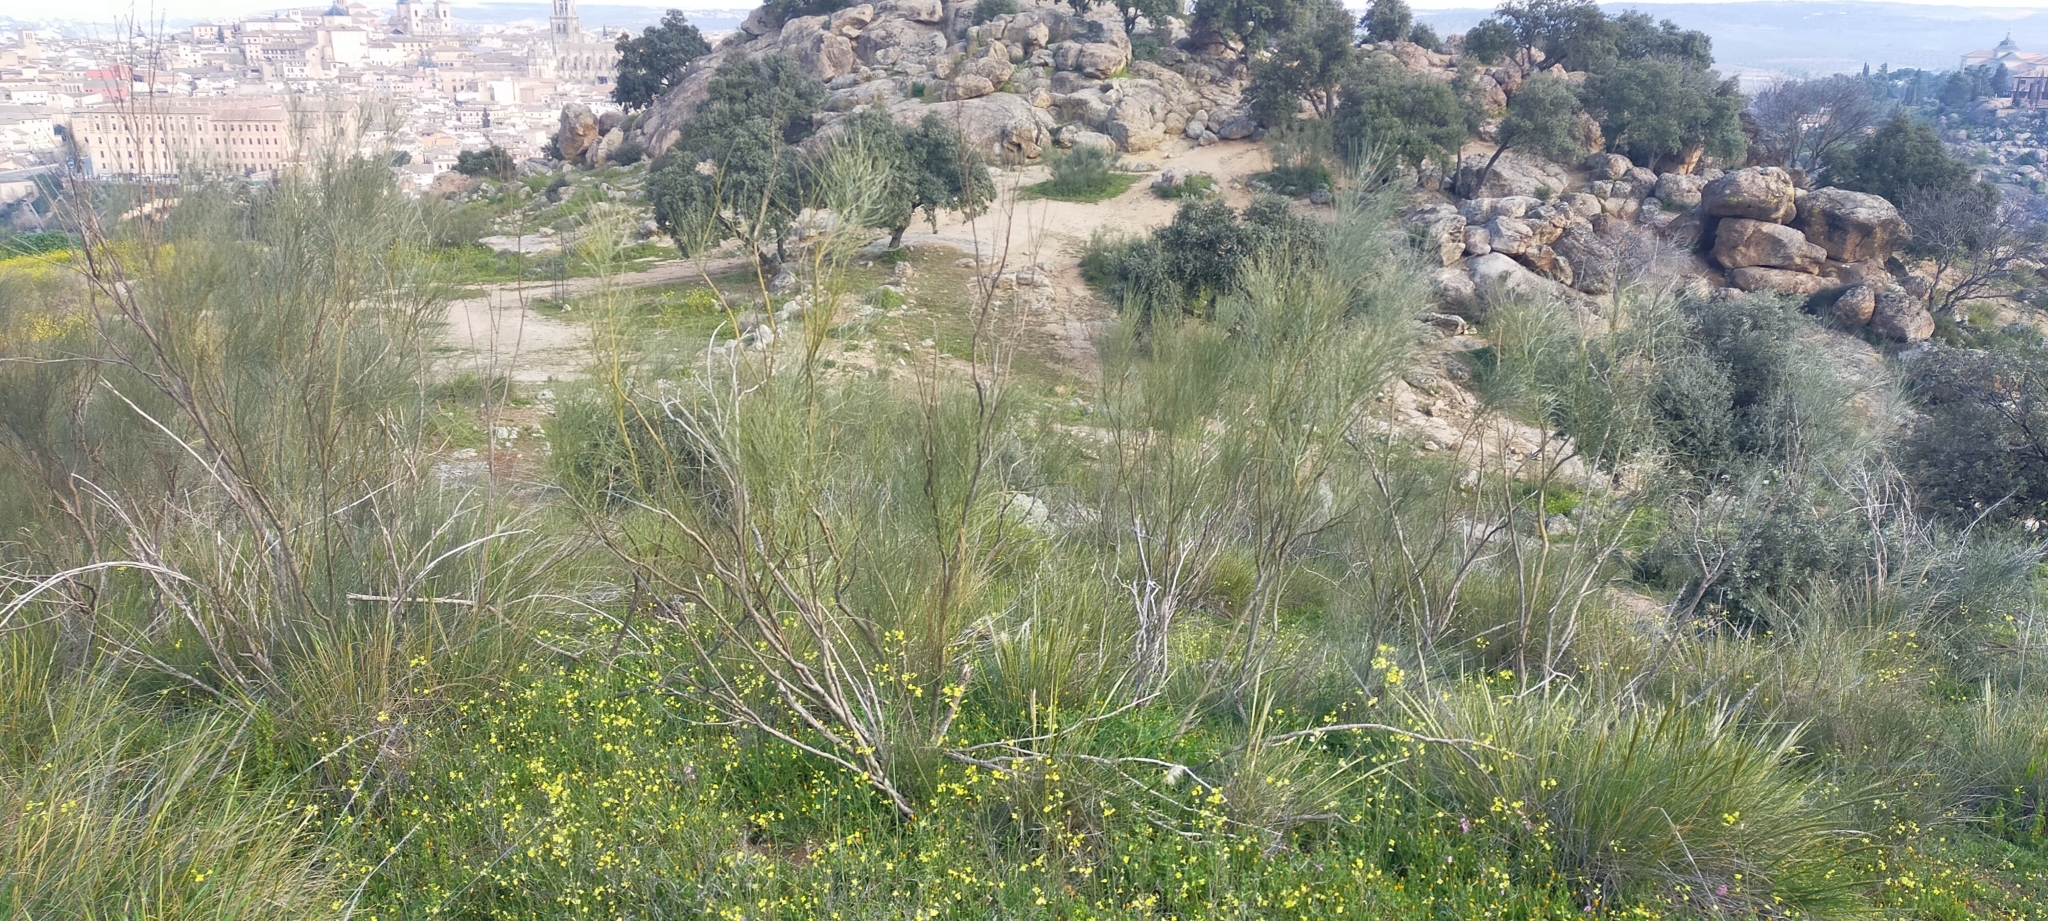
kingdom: Plantae
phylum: Tracheophyta
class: Magnoliopsida
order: Fabales
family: Fabaceae
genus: Retama
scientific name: Retama sphaerocarpa
